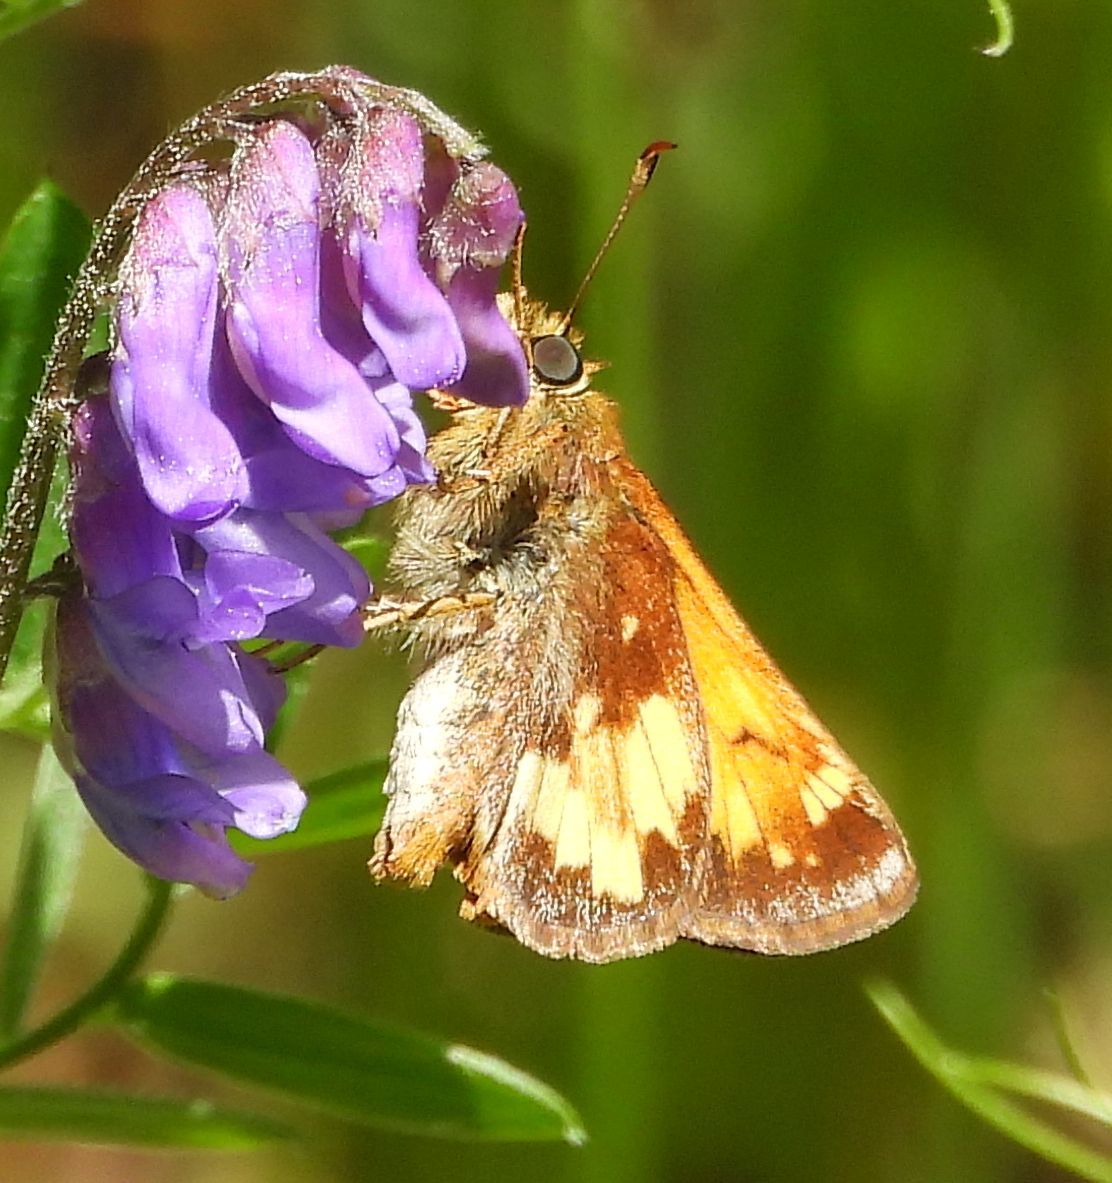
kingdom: Animalia
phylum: Arthropoda
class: Insecta
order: Lepidoptera
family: Hesperiidae
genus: Lon
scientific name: Lon hobomok
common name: Hobomok skipper
